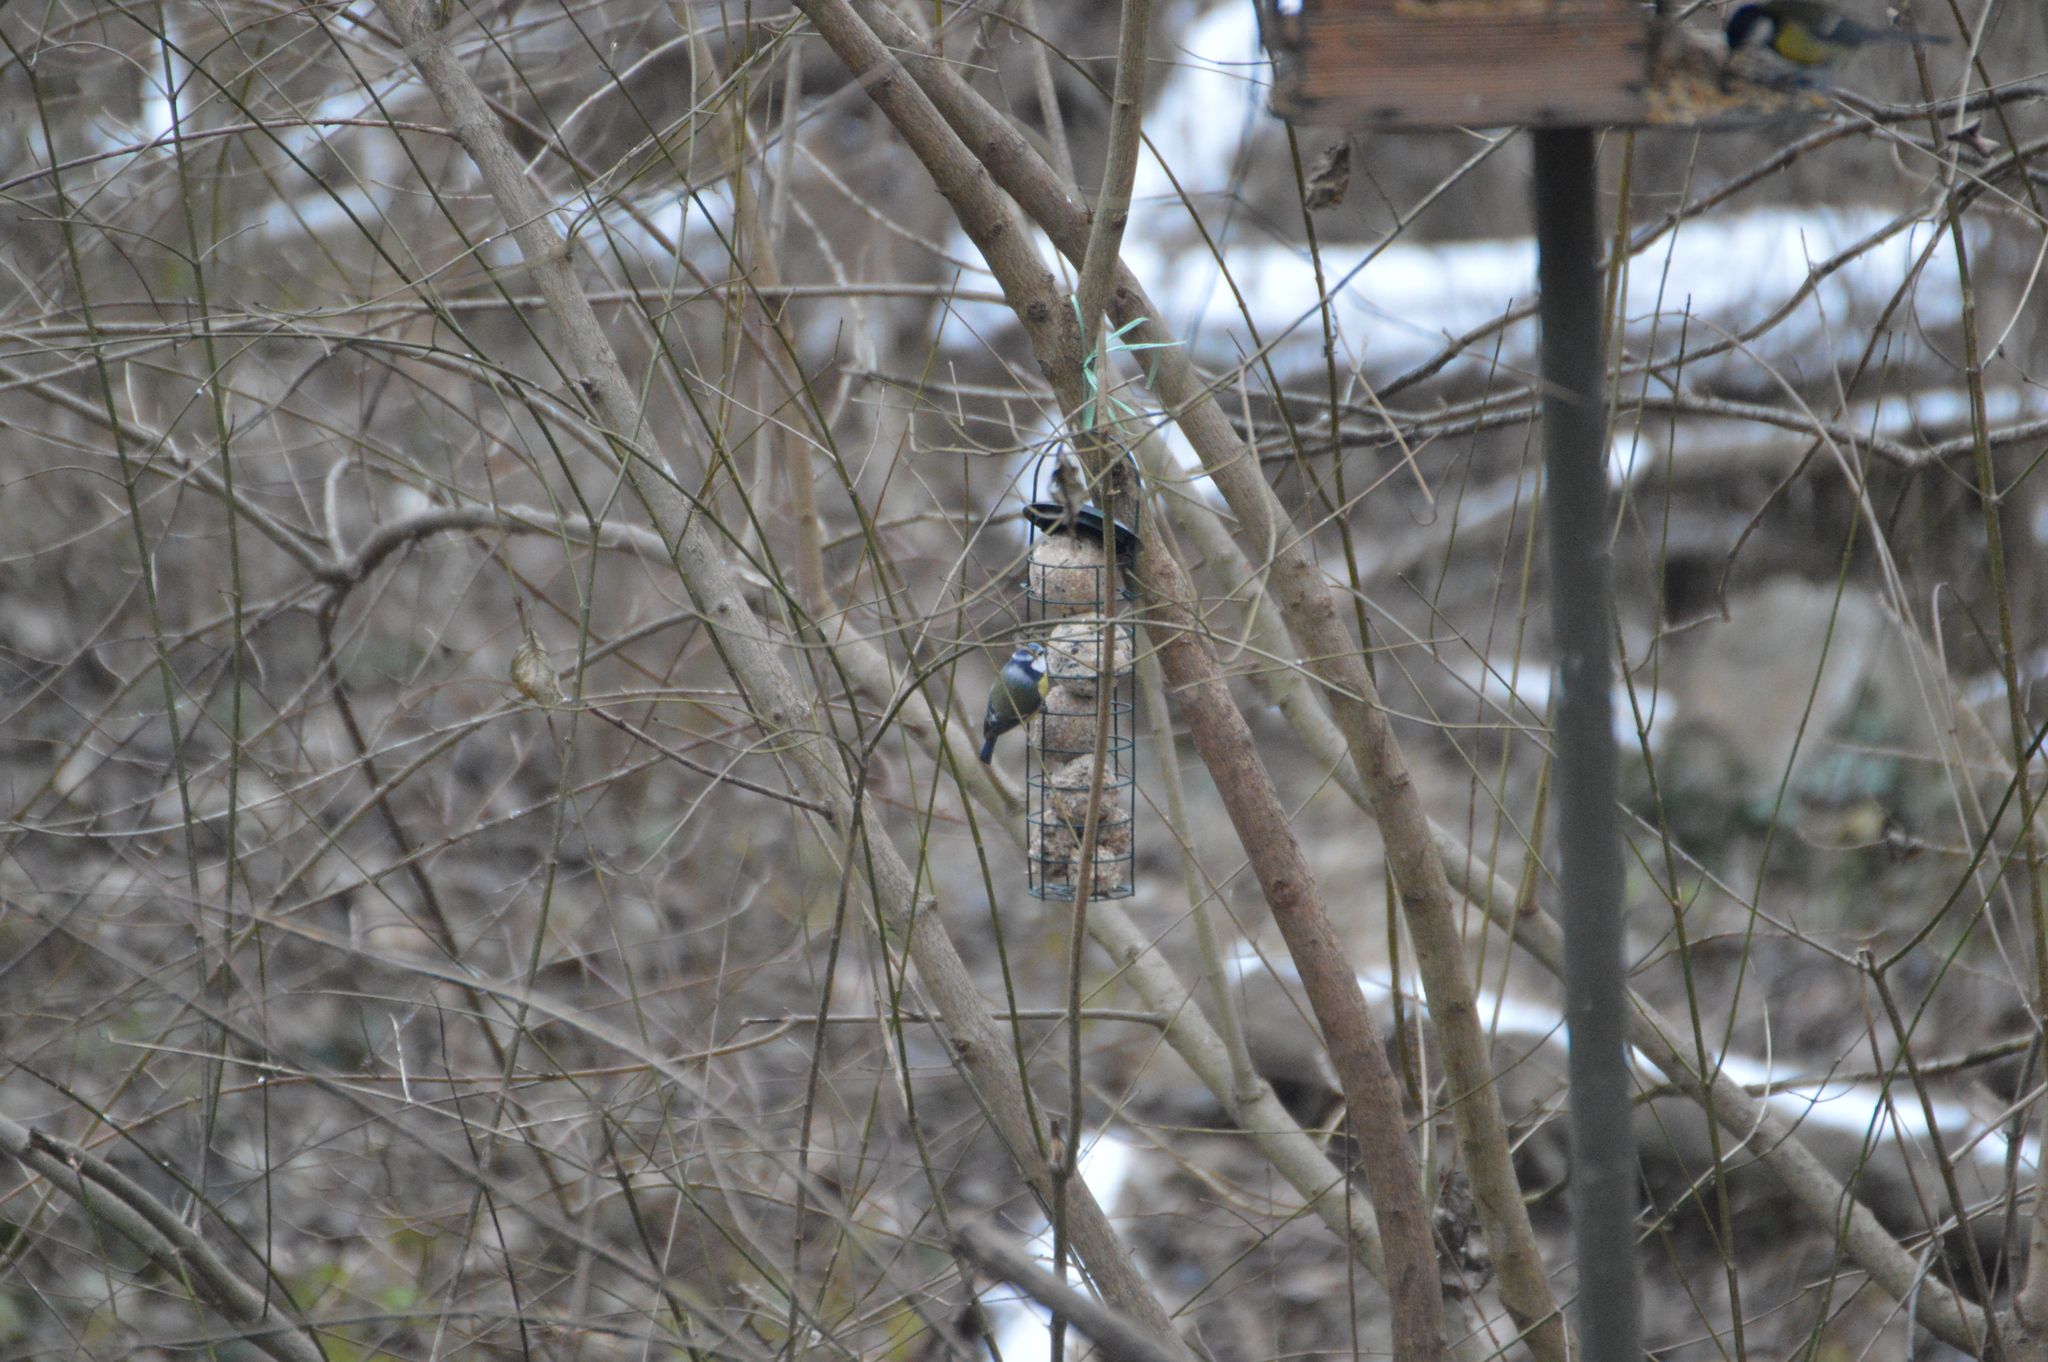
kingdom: Animalia
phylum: Chordata
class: Aves
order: Passeriformes
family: Paridae
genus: Cyanistes
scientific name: Cyanistes caeruleus
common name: Eurasian blue tit
